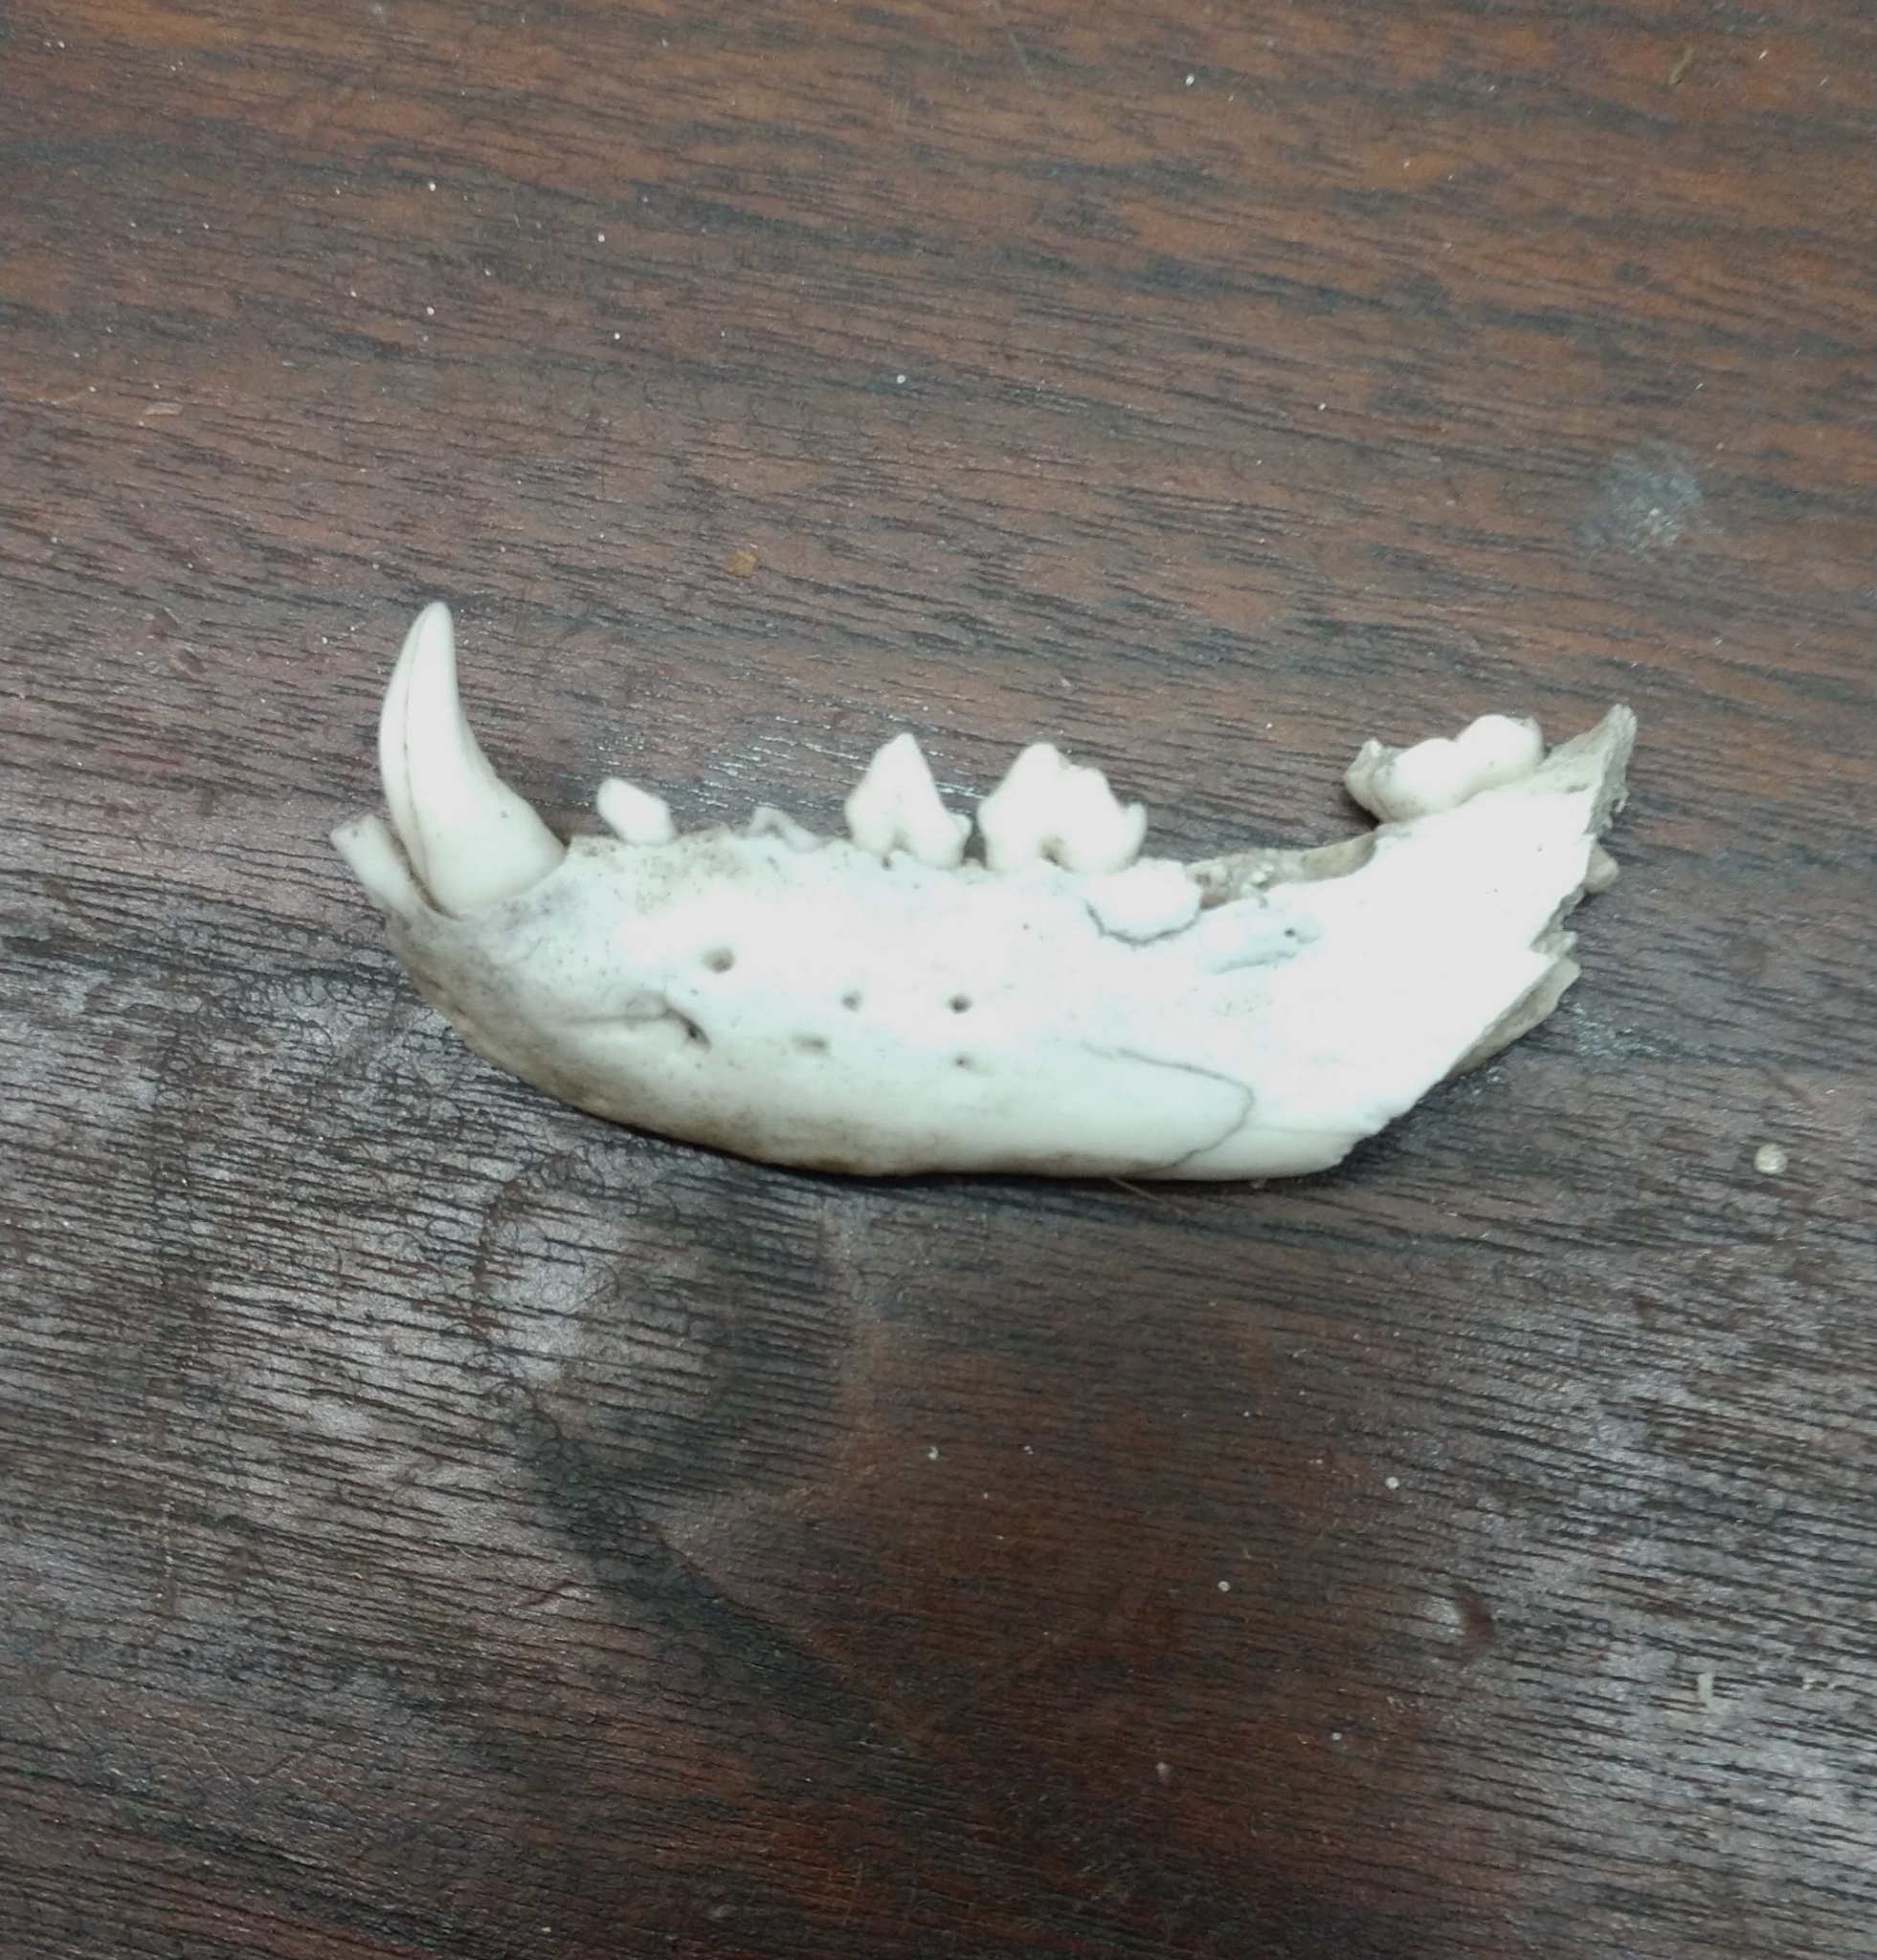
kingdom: Animalia
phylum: Chordata
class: Mammalia
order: Carnivora
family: Procyonidae
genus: Procyon
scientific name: Procyon lotor
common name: Raccoon
